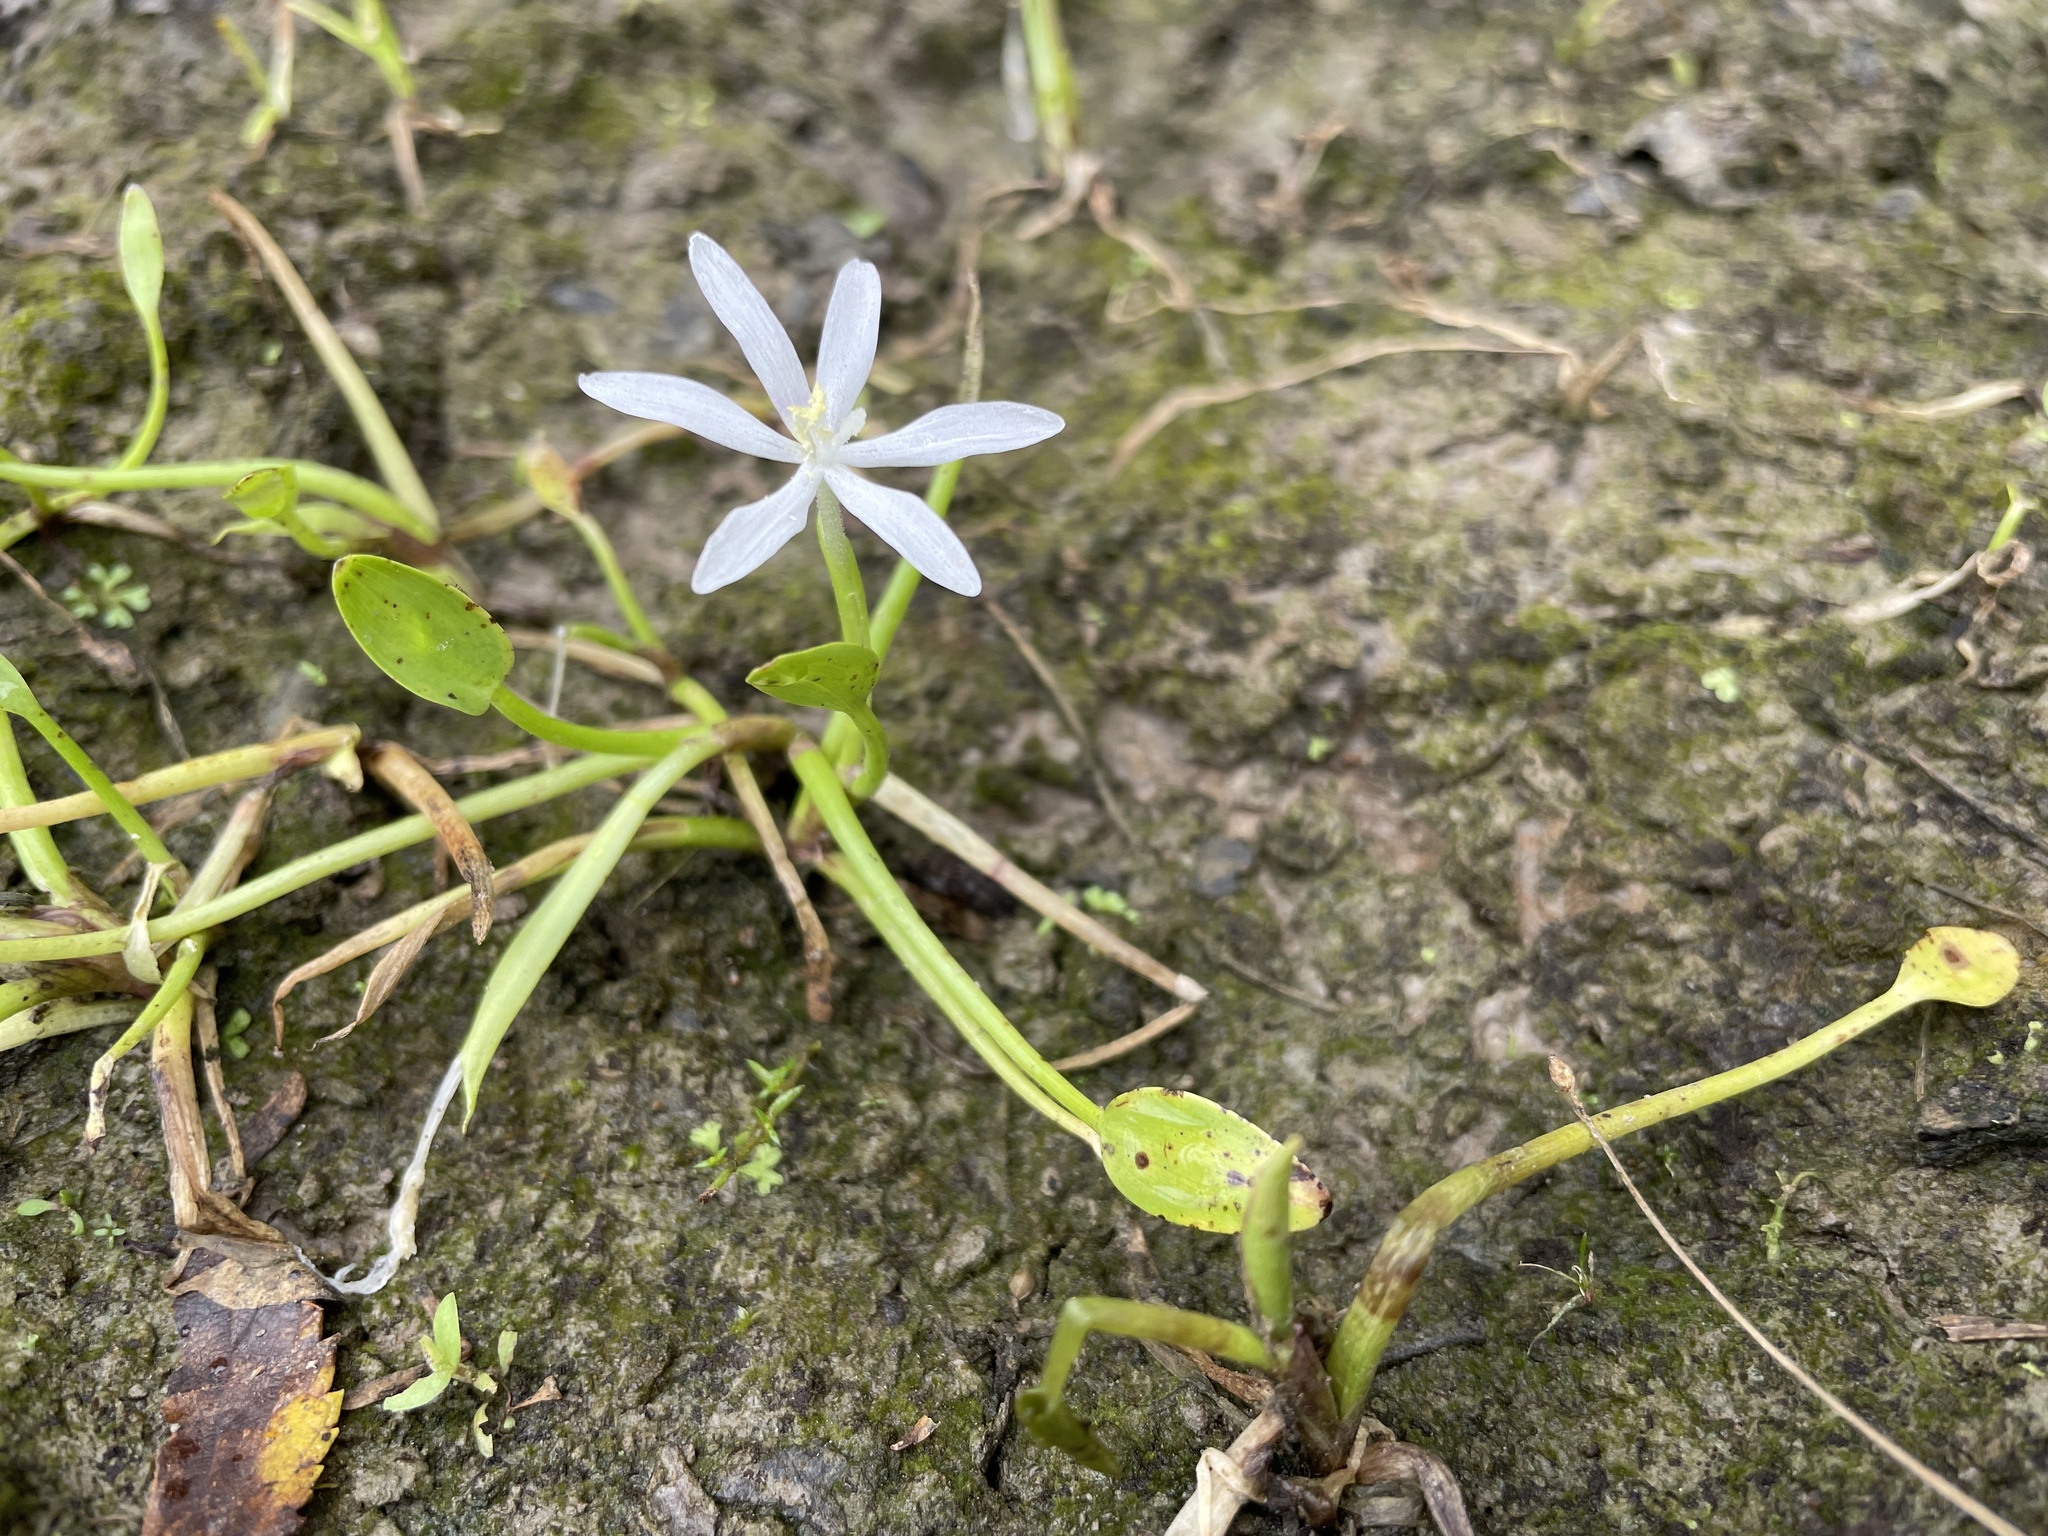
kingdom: Plantae
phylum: Tracheophyta
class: Liliopsida
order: Commelinales
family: Pontederiaceae
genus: Heteranthera
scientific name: Heteranthera limosa
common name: Blue mud-plantain
